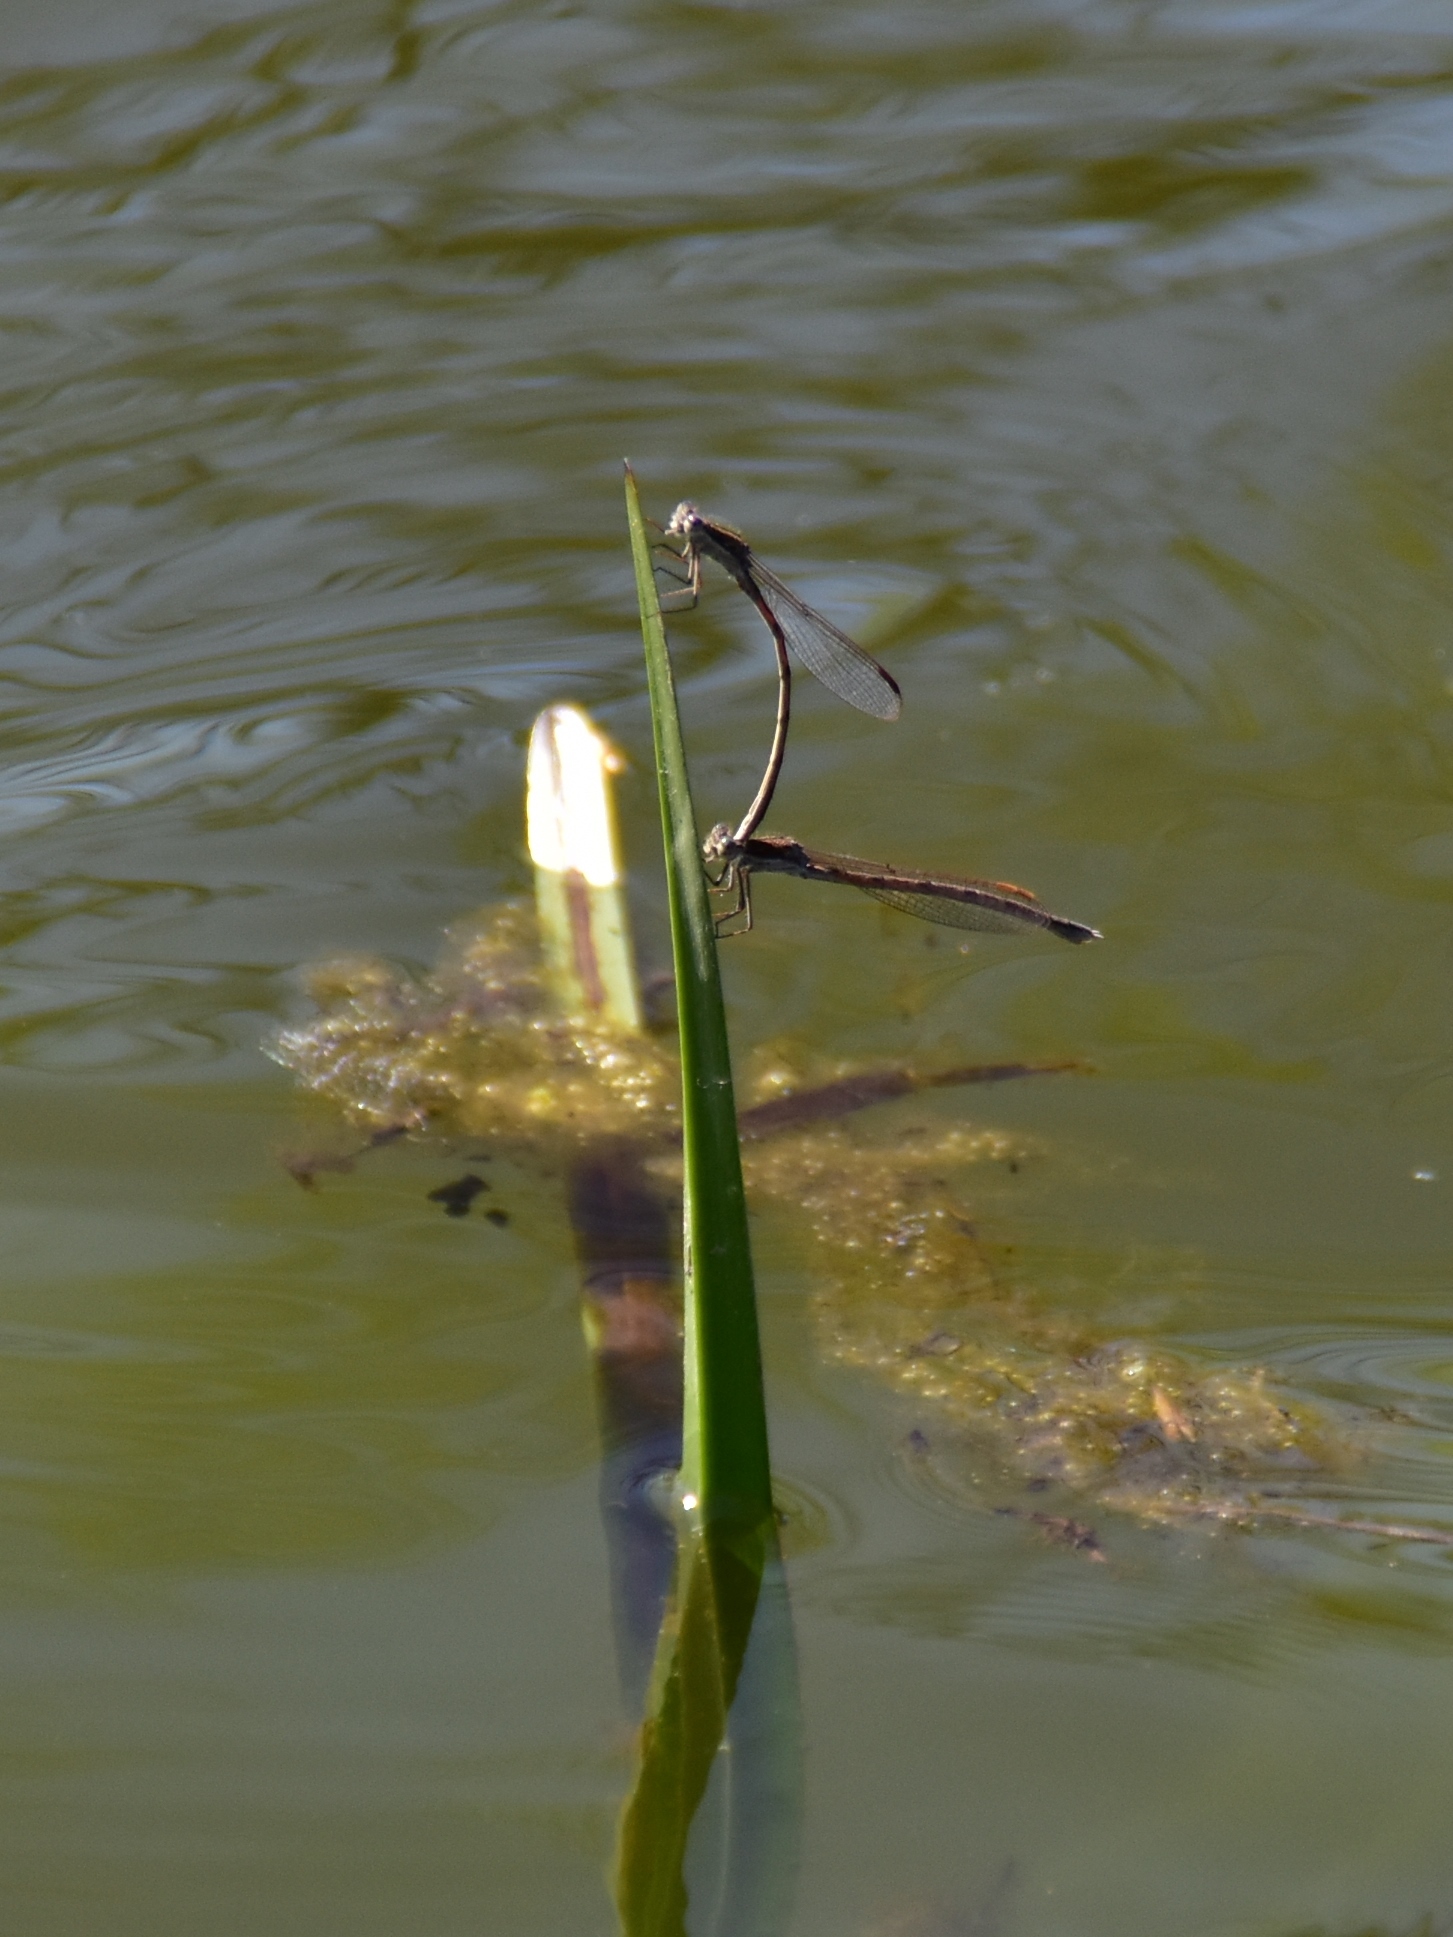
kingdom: Animalia
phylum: Arthropoda
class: Insecta
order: Odonata
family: Lestidae
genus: Sympecma
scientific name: Sympecma fusca
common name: Common winter damsel
